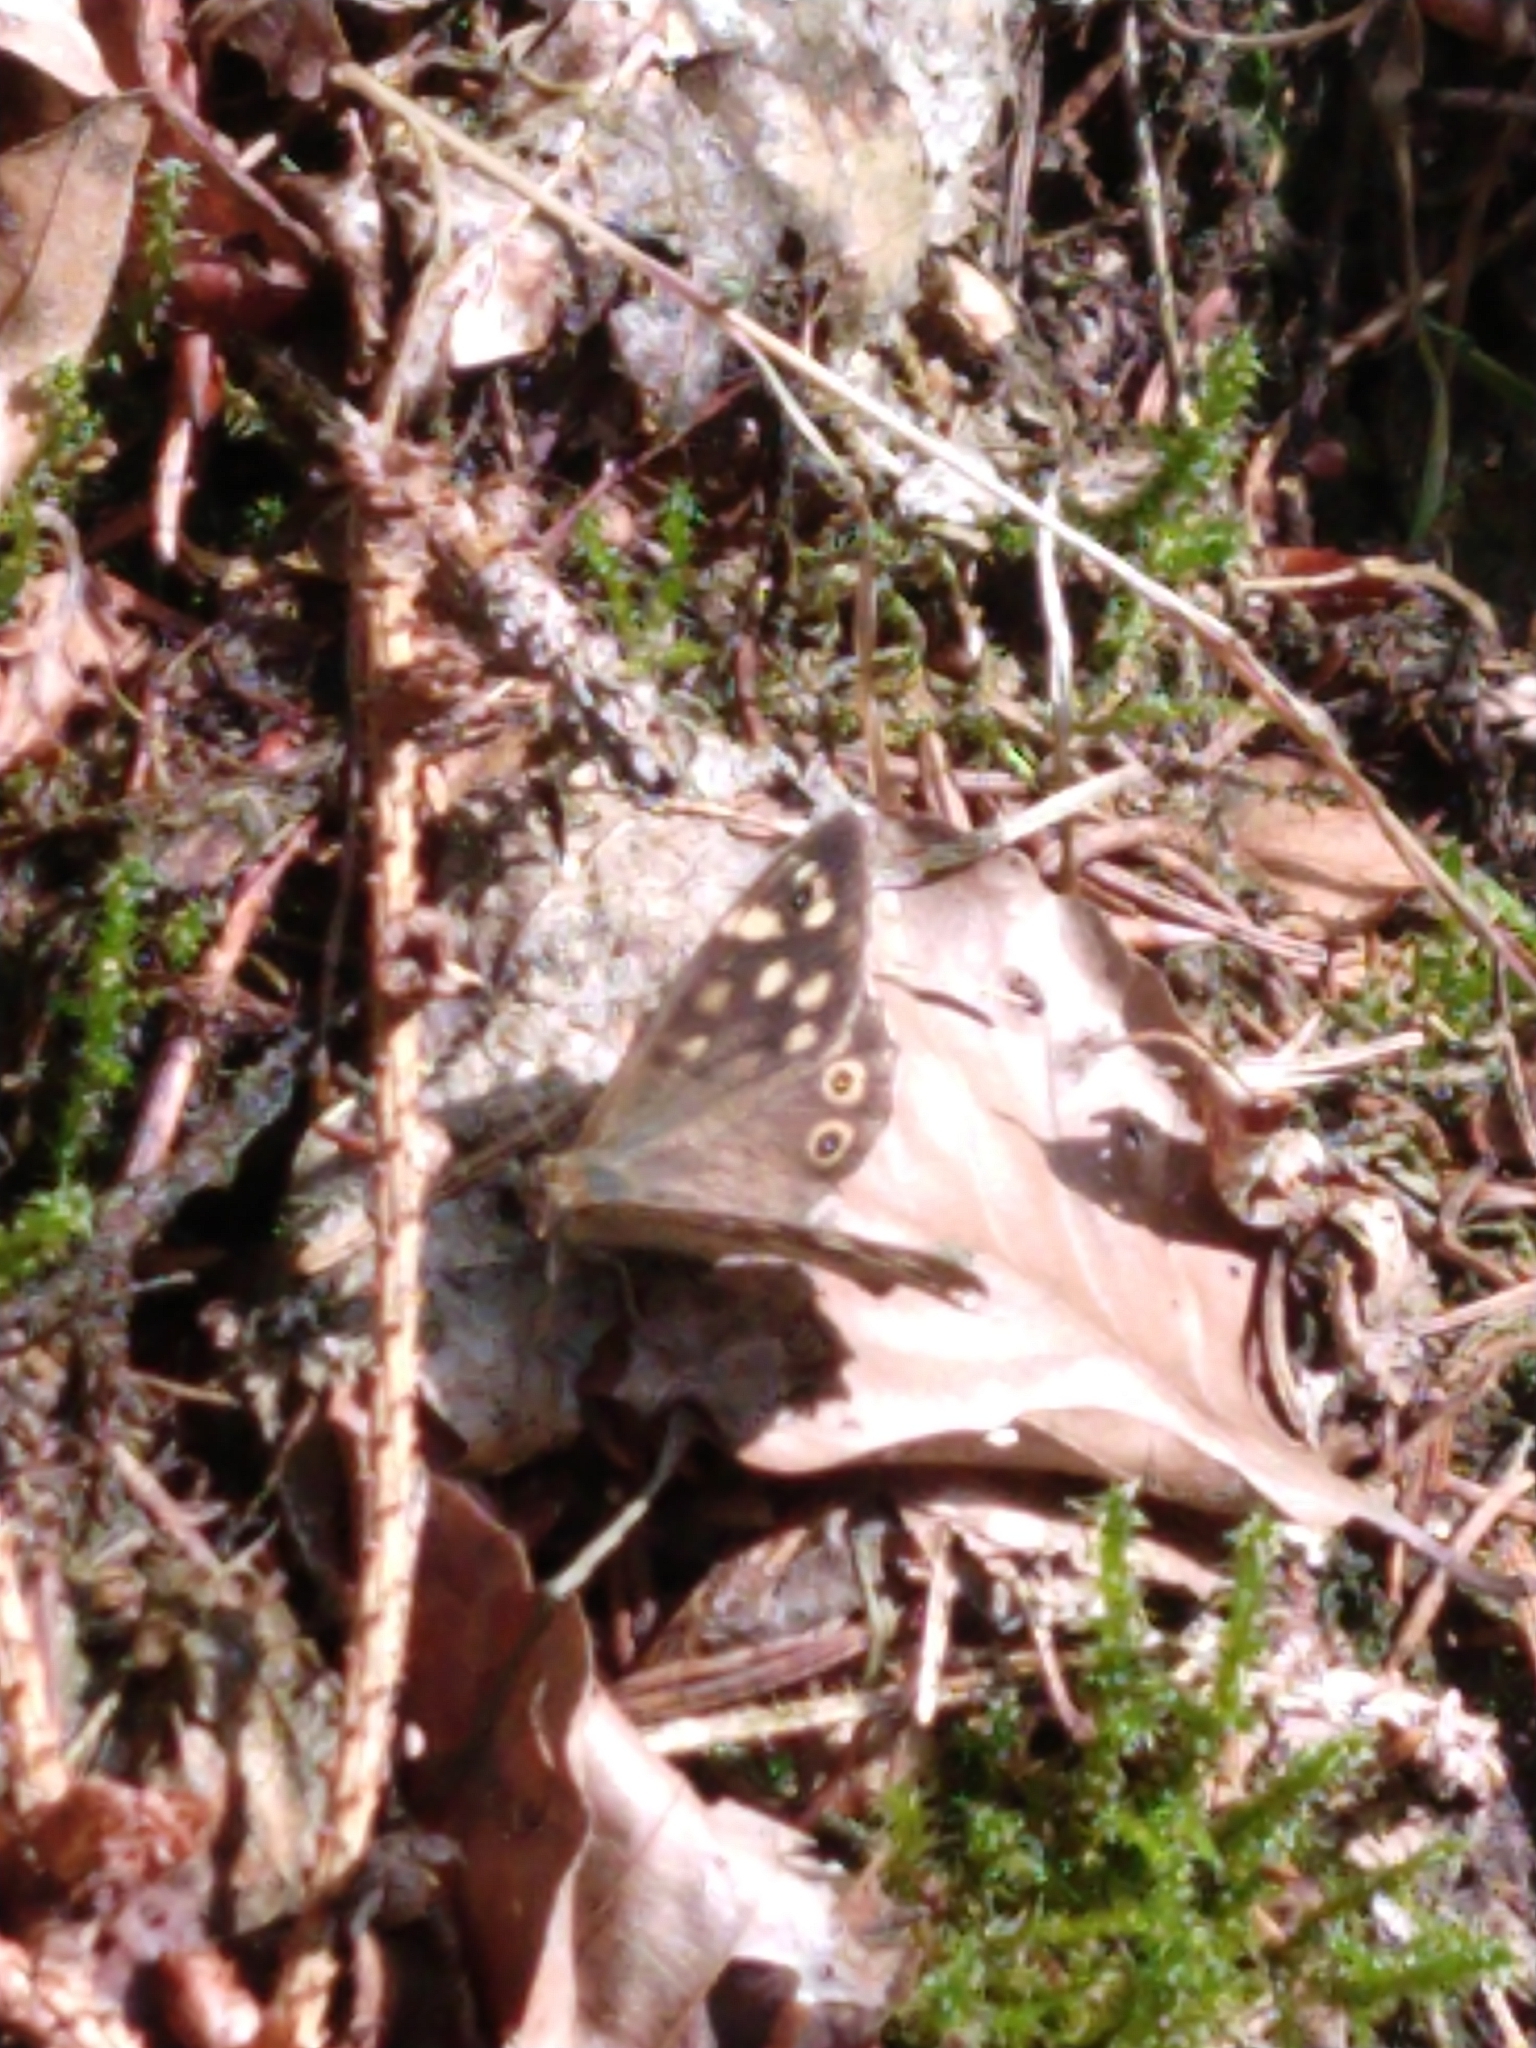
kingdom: Animalia
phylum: Arthropoda
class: Insecta
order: Lepidoptera
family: Nymphalidae
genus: Pararge
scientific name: Pararge aegeria
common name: Speckled wood
